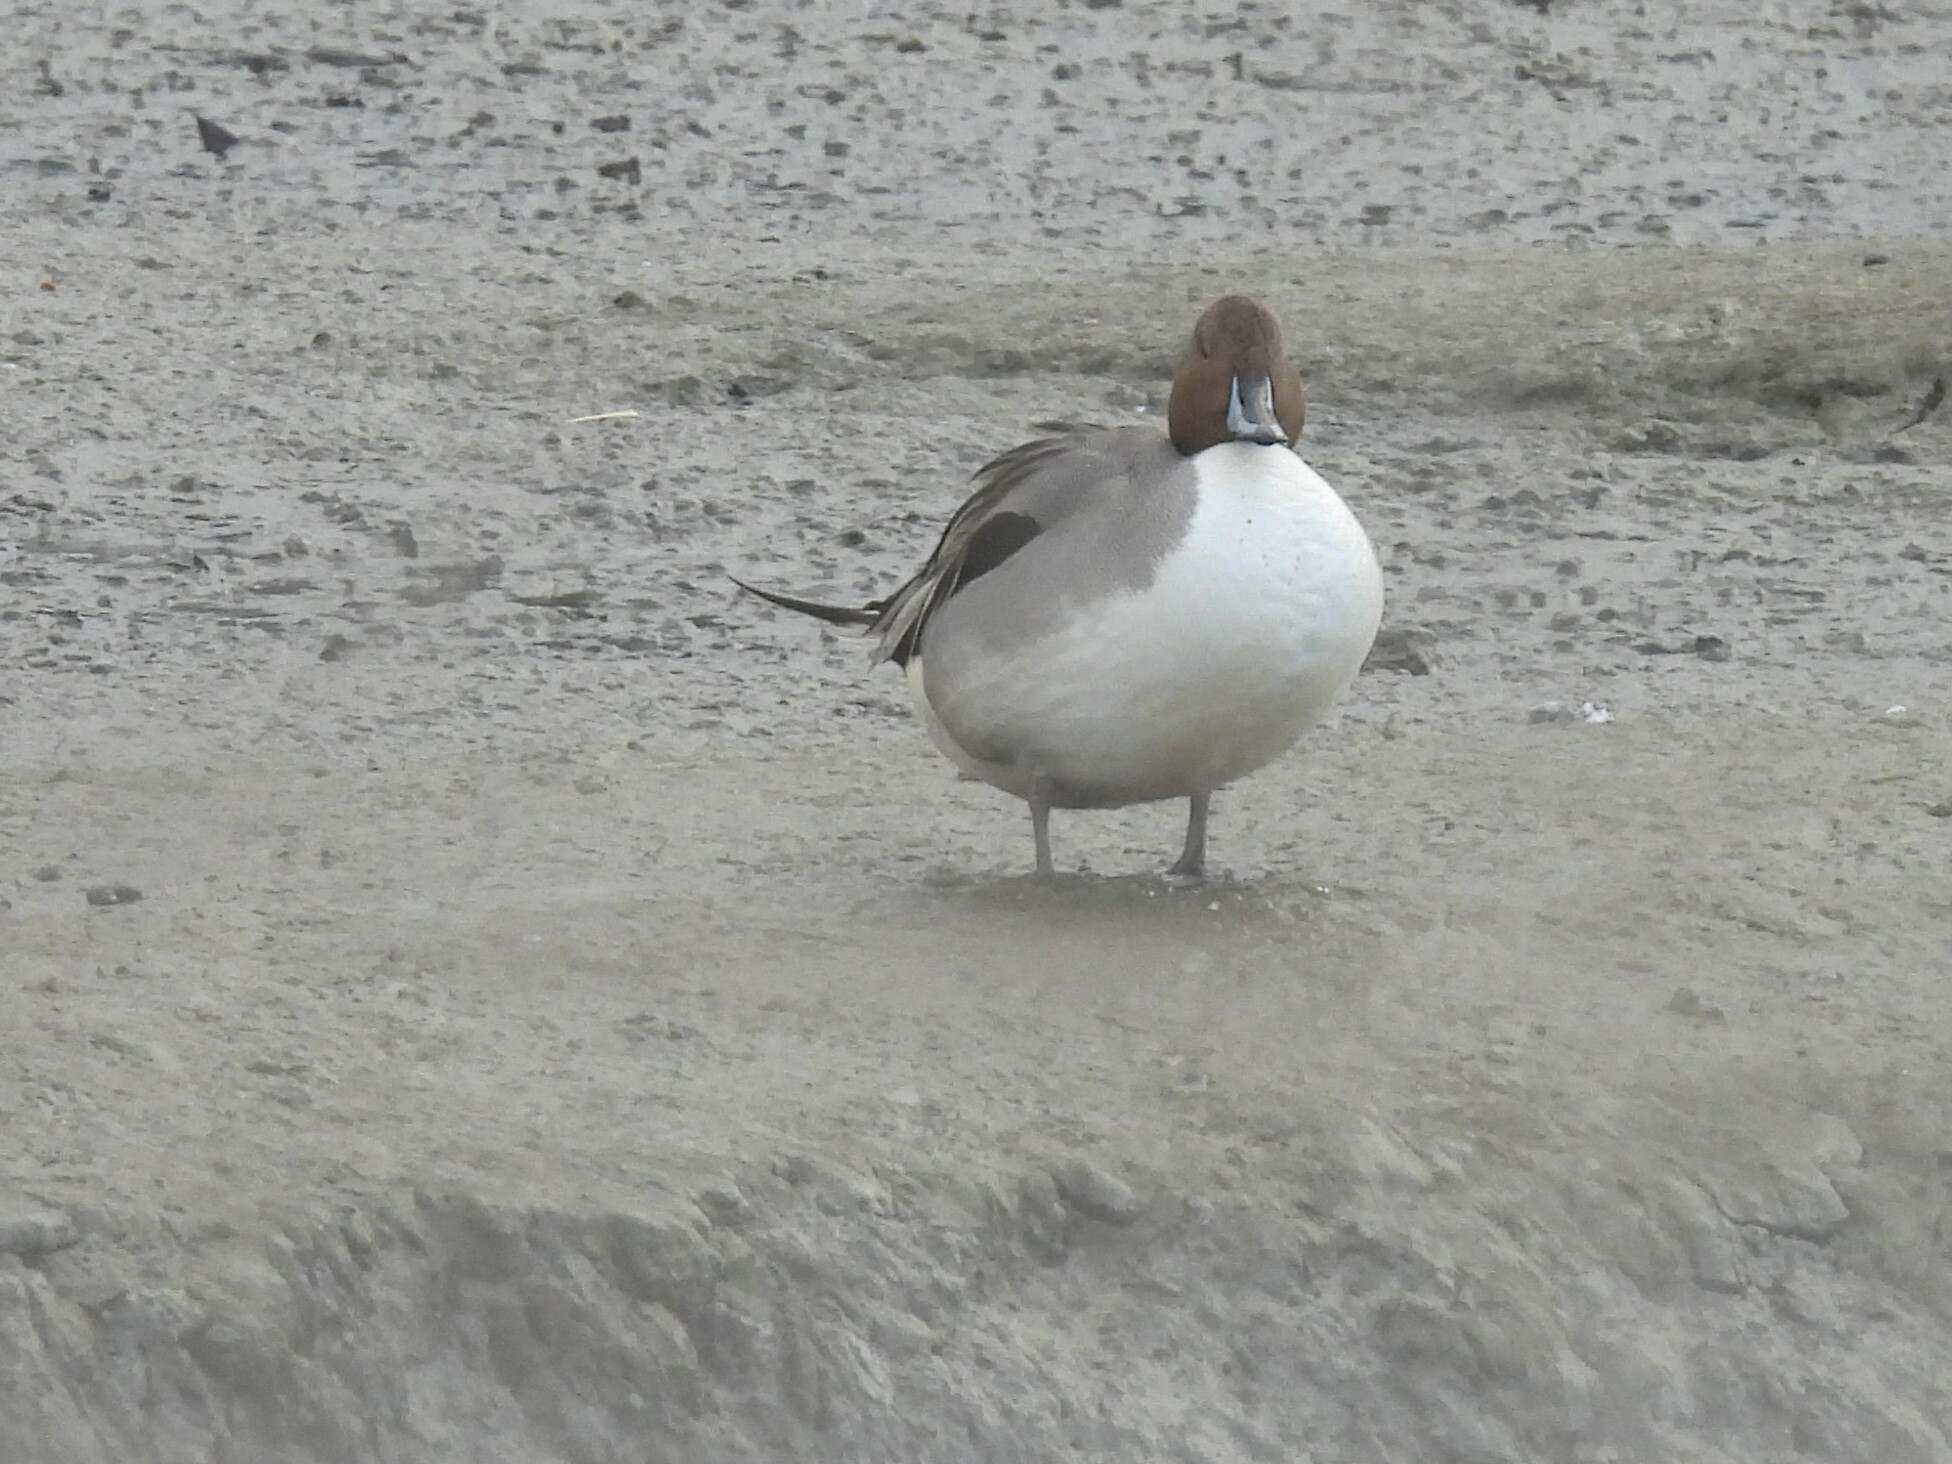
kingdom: Animalia
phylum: Chordata
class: Aves
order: Anseriformes
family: Anatidae
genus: Anas
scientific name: Anas acuta
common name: Northern pintail
